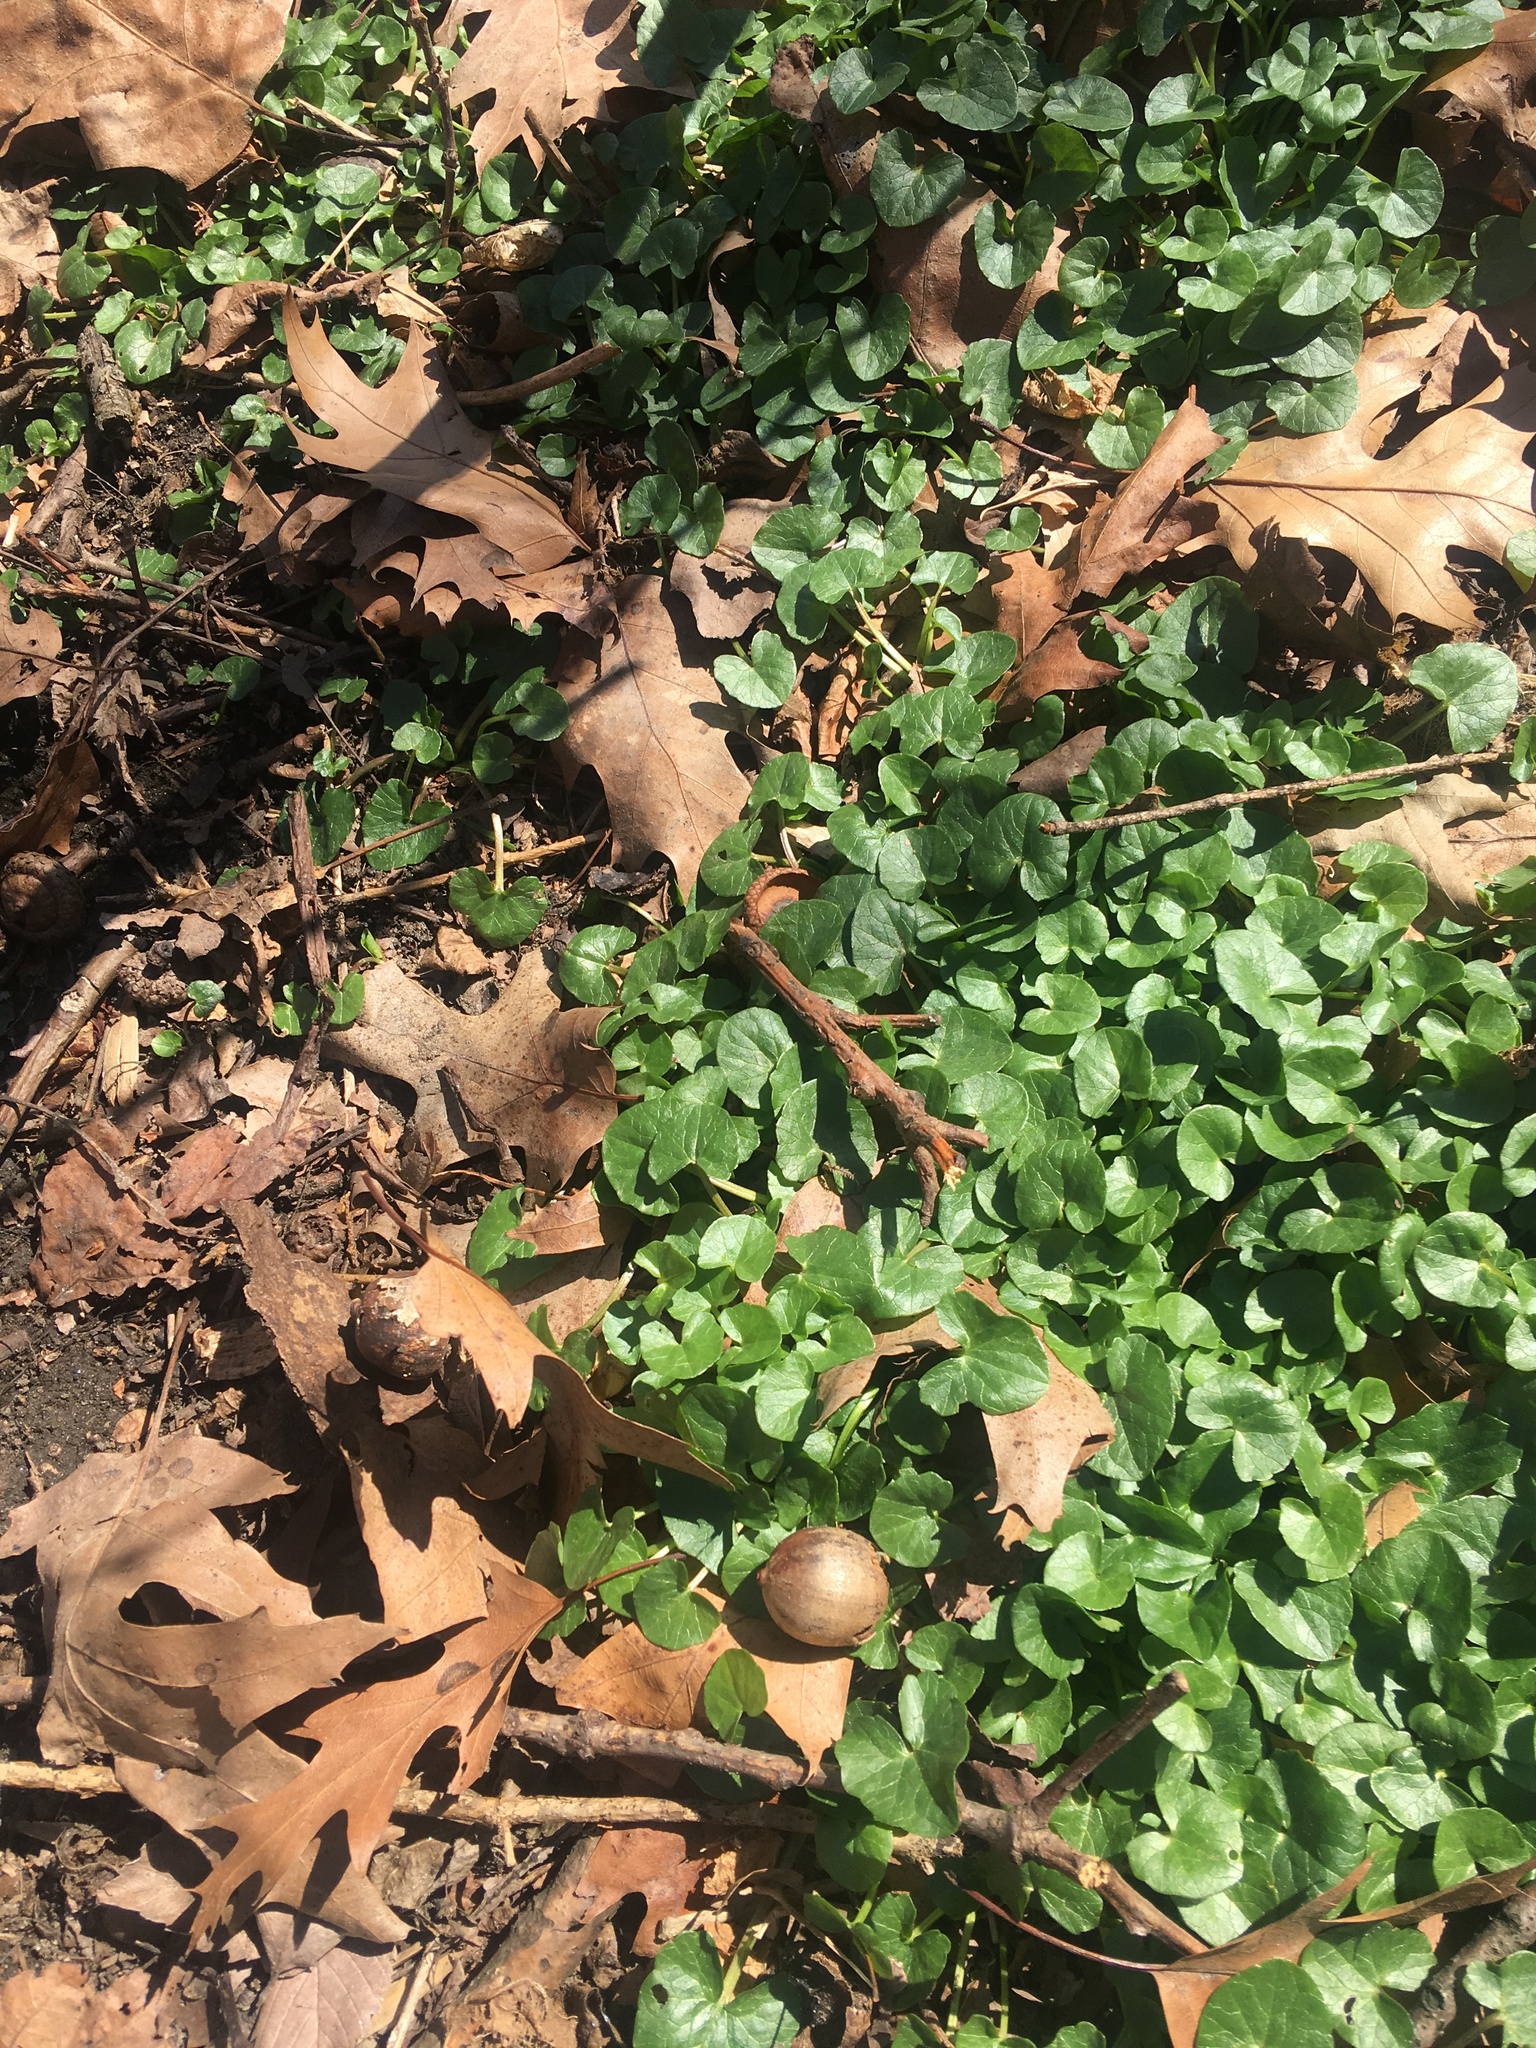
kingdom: Plantae
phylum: Tracheophyta
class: Magnoliopsida
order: Ranunculales
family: Ranunculaceae
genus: Ficaria
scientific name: Ficaria verna
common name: Lesser celandine
